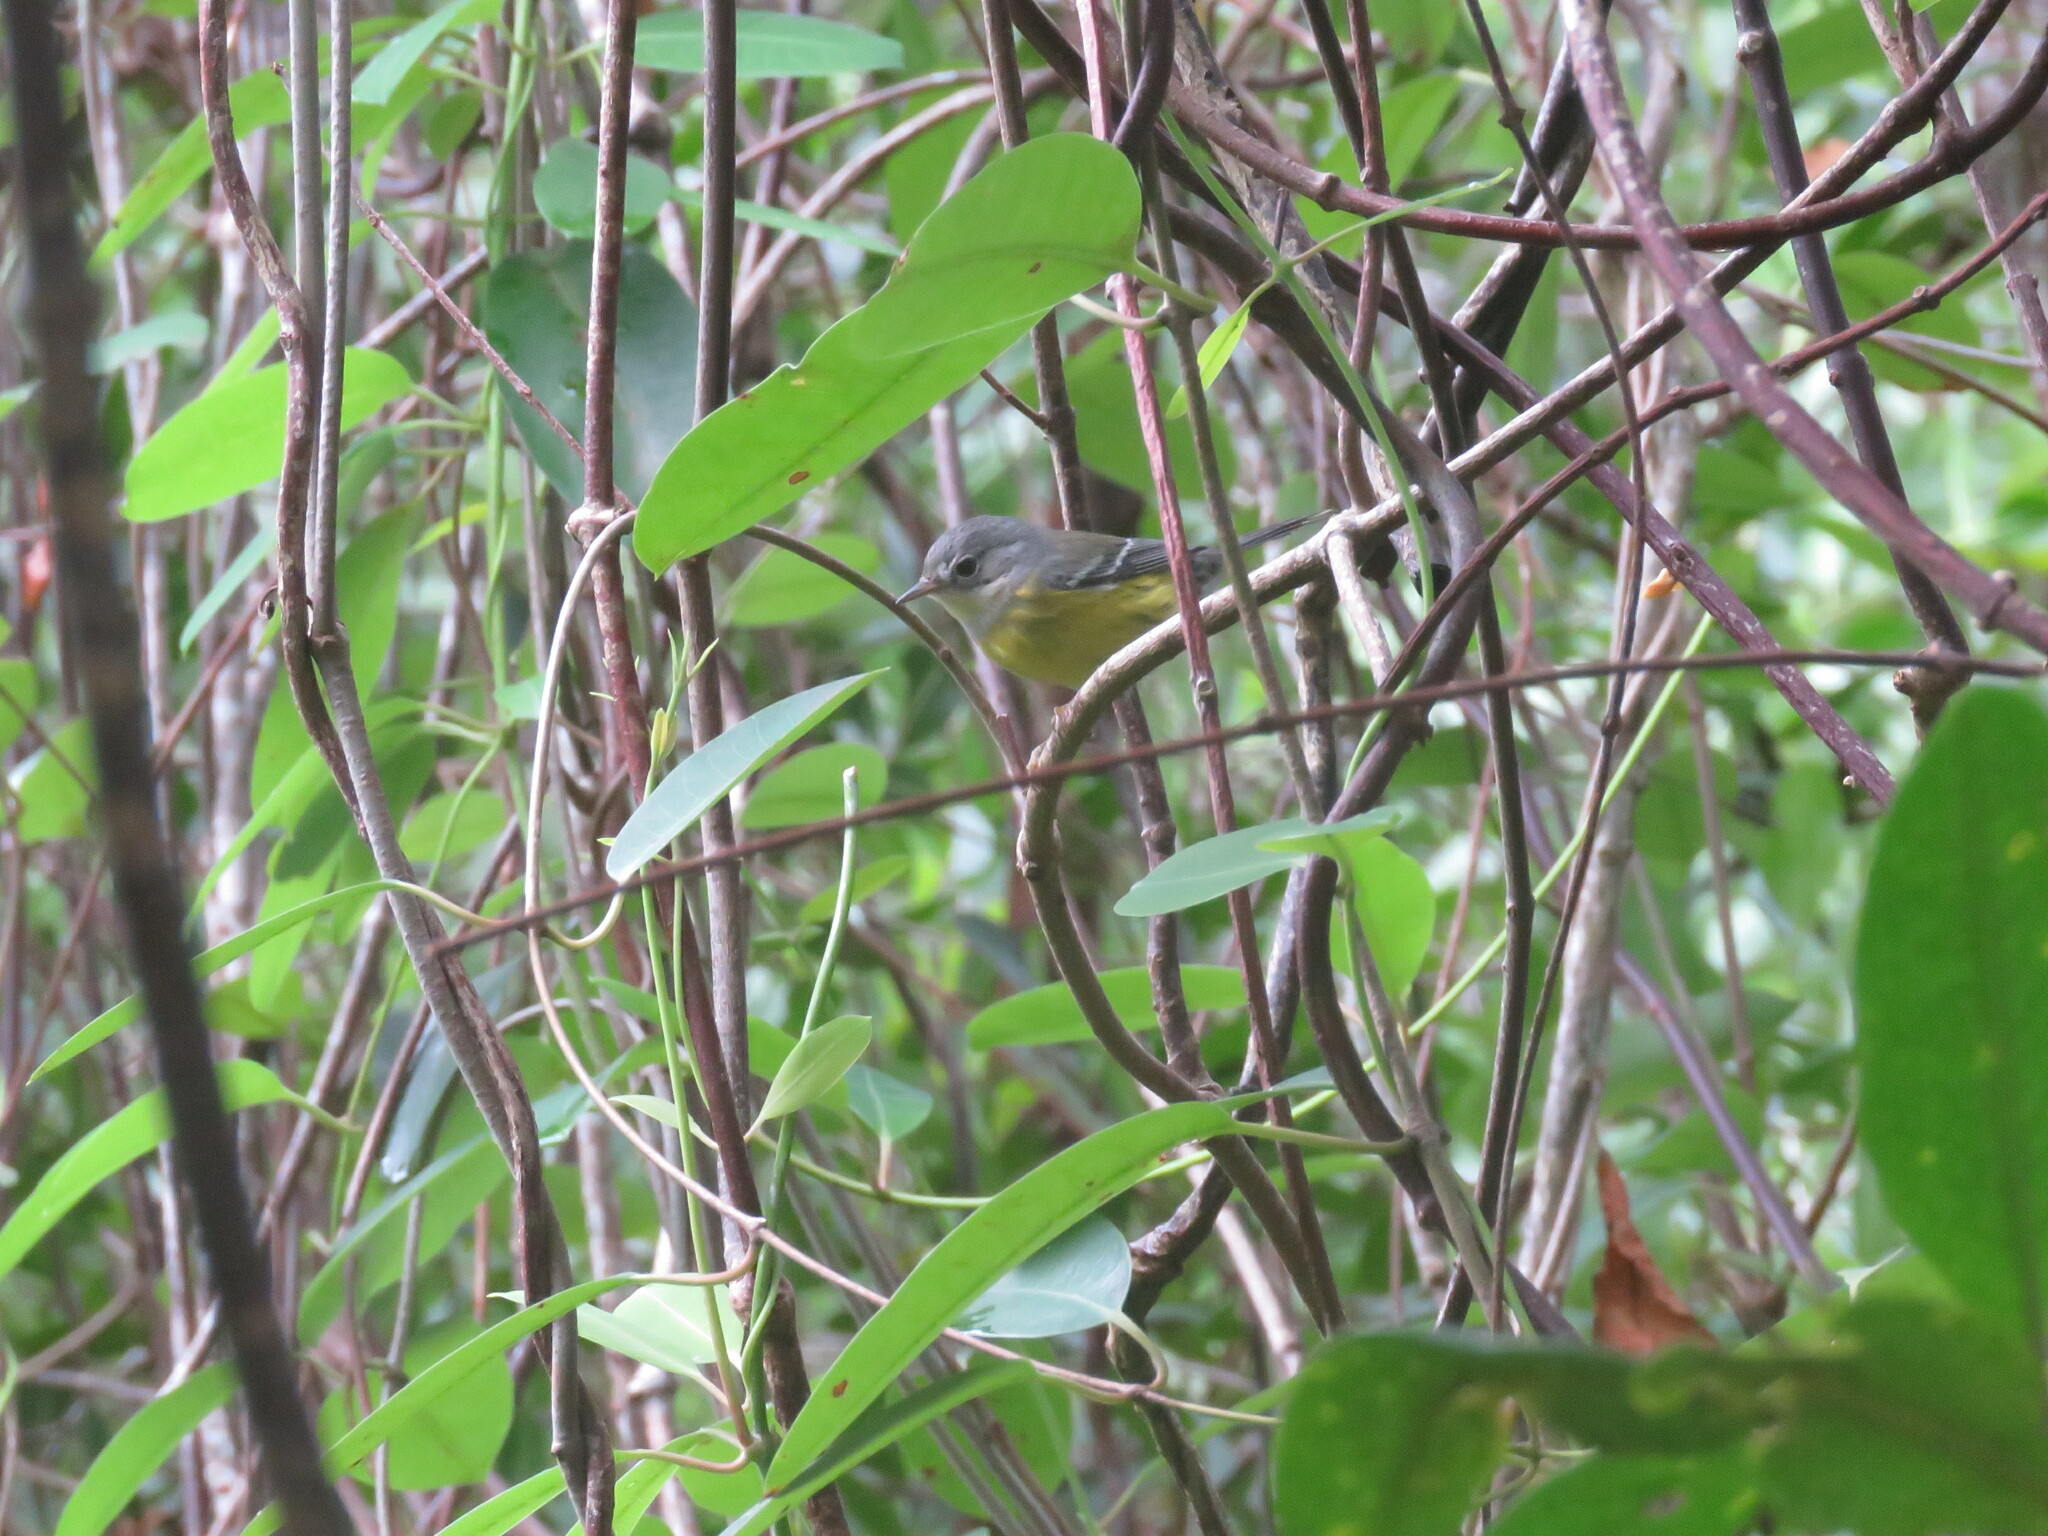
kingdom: Animalia
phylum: Chordata
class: Aves
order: Passeriformes
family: Parulidae
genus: Setophaga
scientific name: Setophaga magnolia
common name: Magnolia warbler
